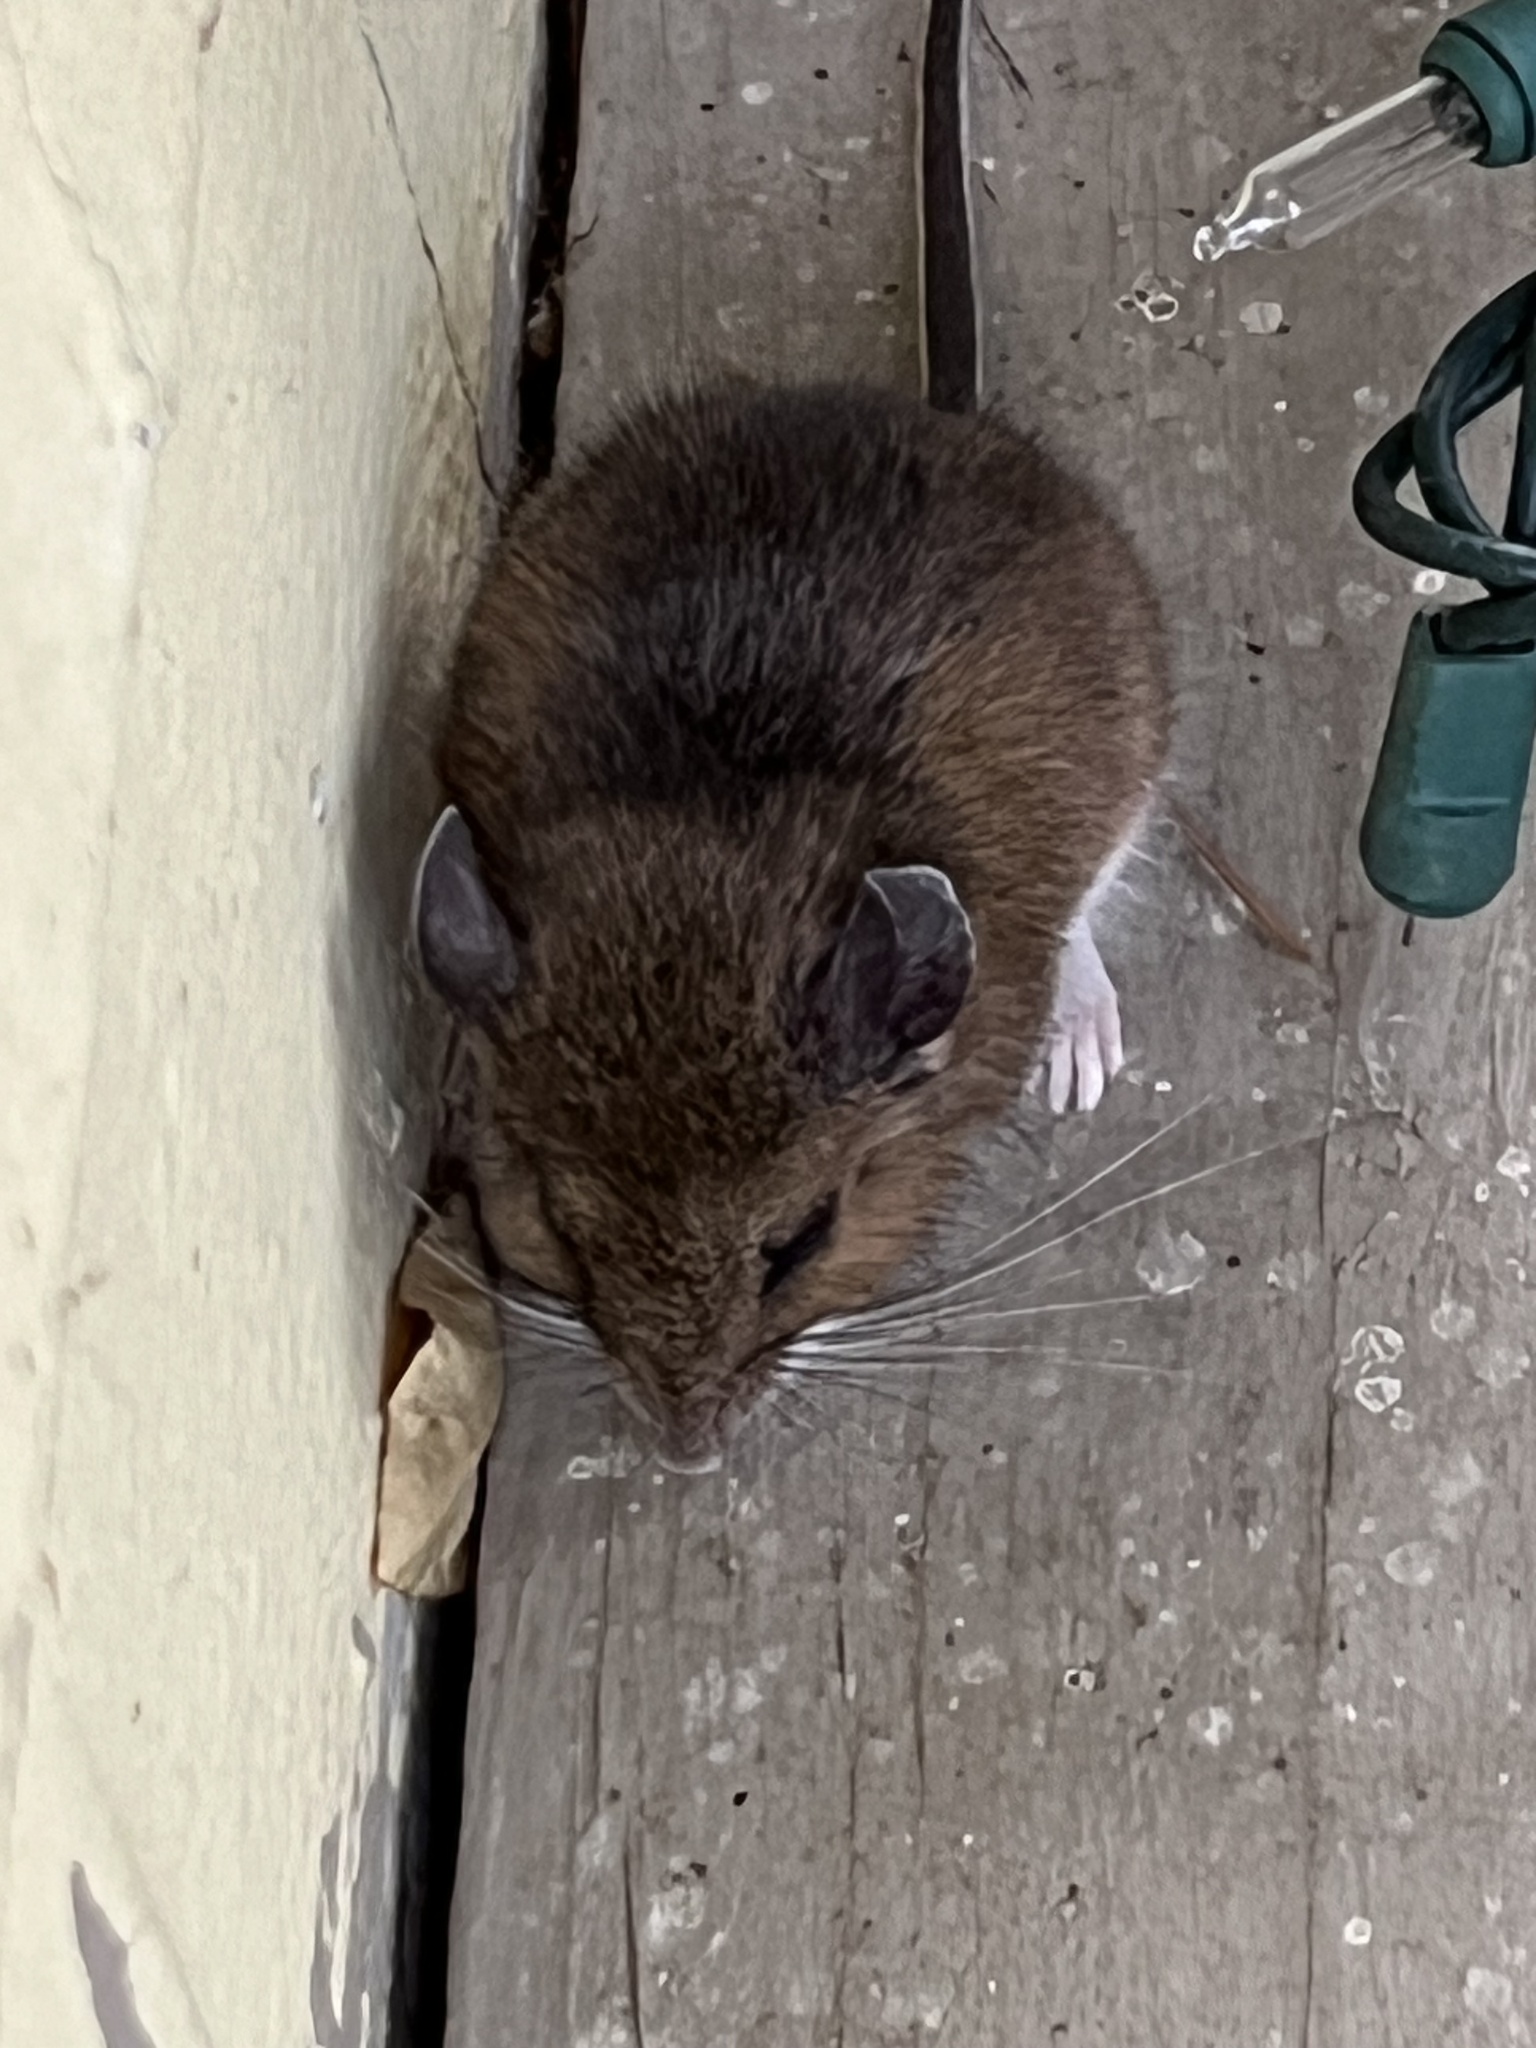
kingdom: Animalia
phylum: Chordata
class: Mammalia
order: Rodentia
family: Cricetidae
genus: Peromyscus
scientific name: Peromyscus leucopus
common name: White-footed deermouse
